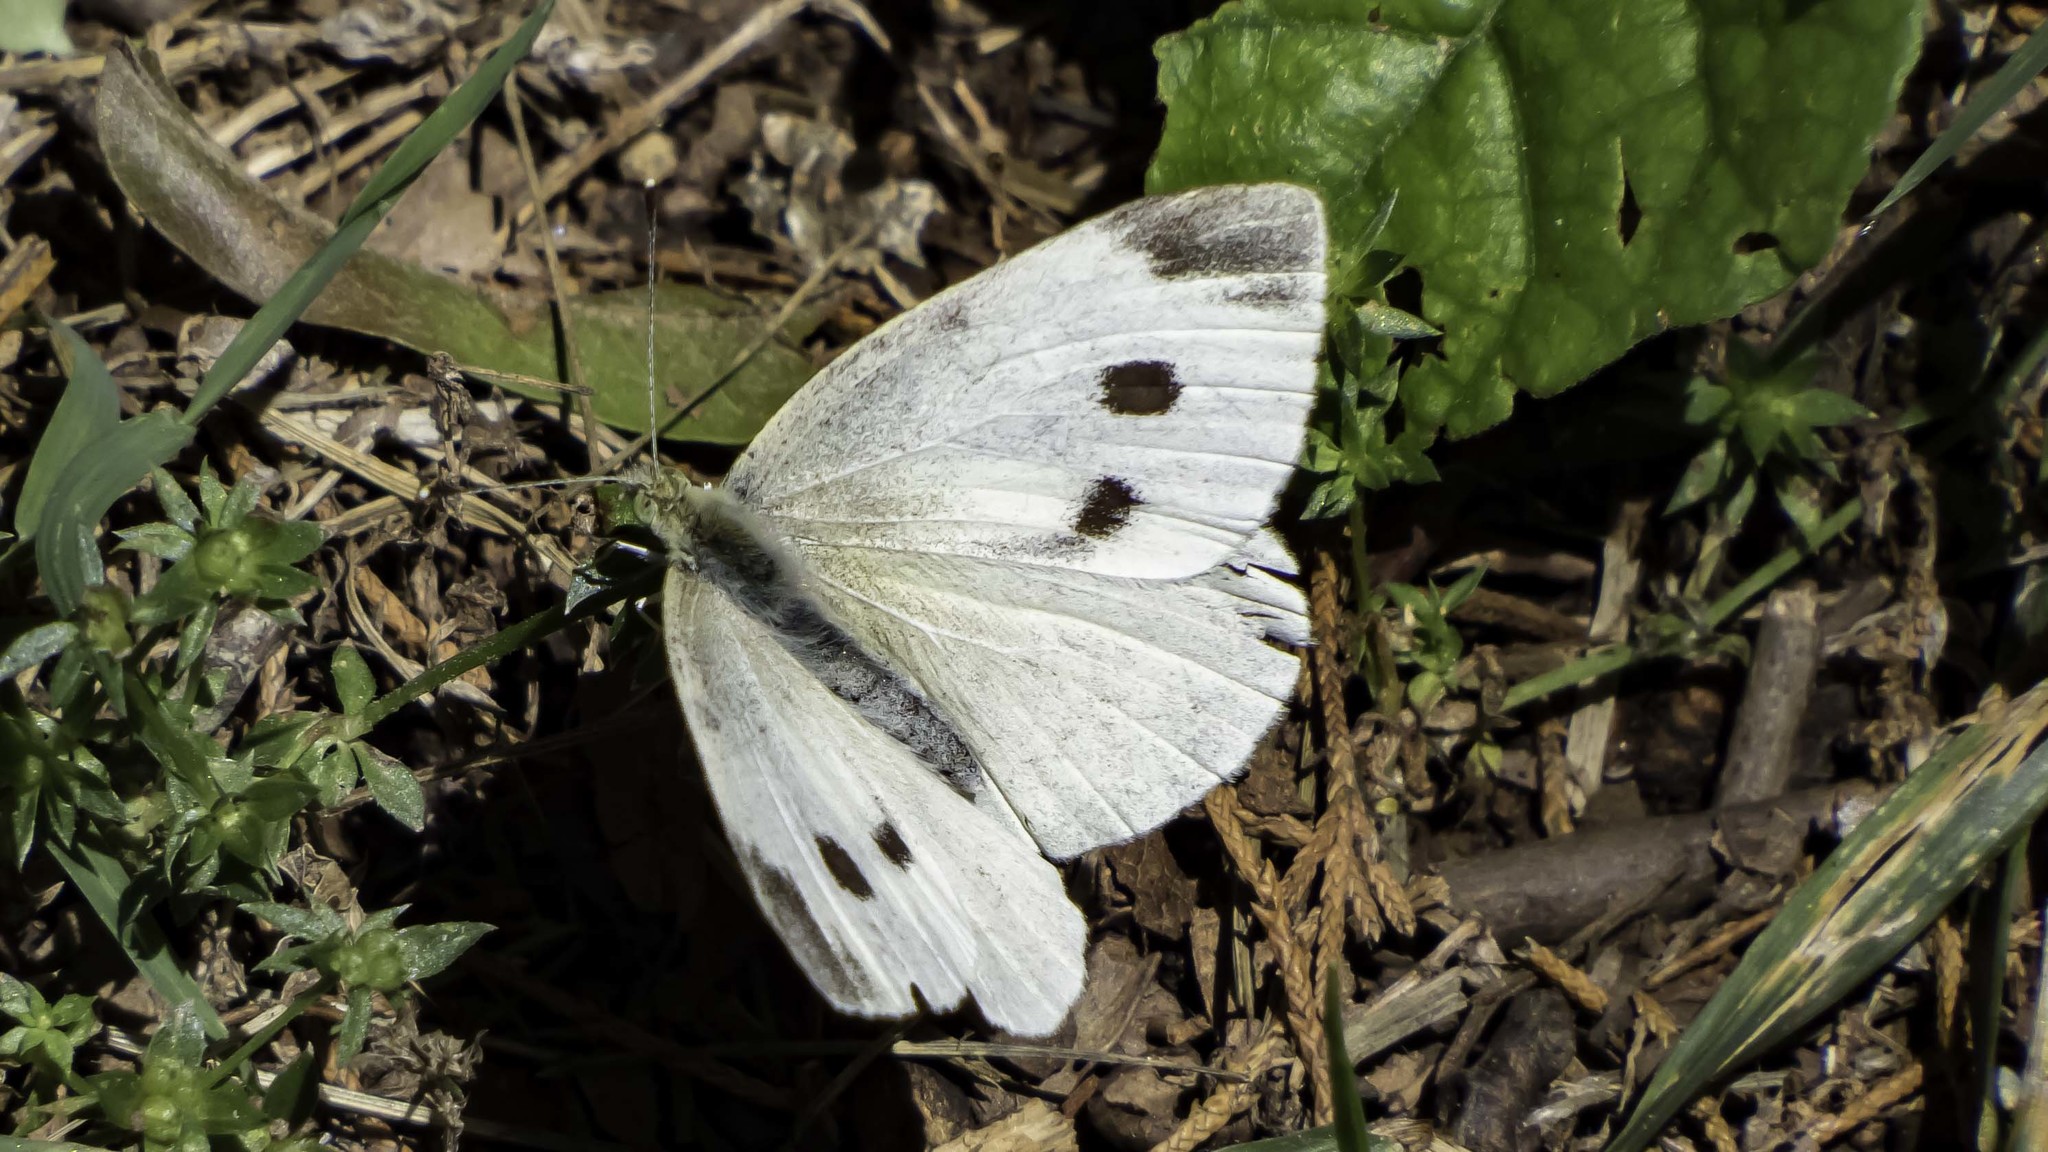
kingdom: Animalia
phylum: Arthropoda
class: Insecta
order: Lepidoptera
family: Pieridae
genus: Pieris
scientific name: Pieris rapae
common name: Small white
